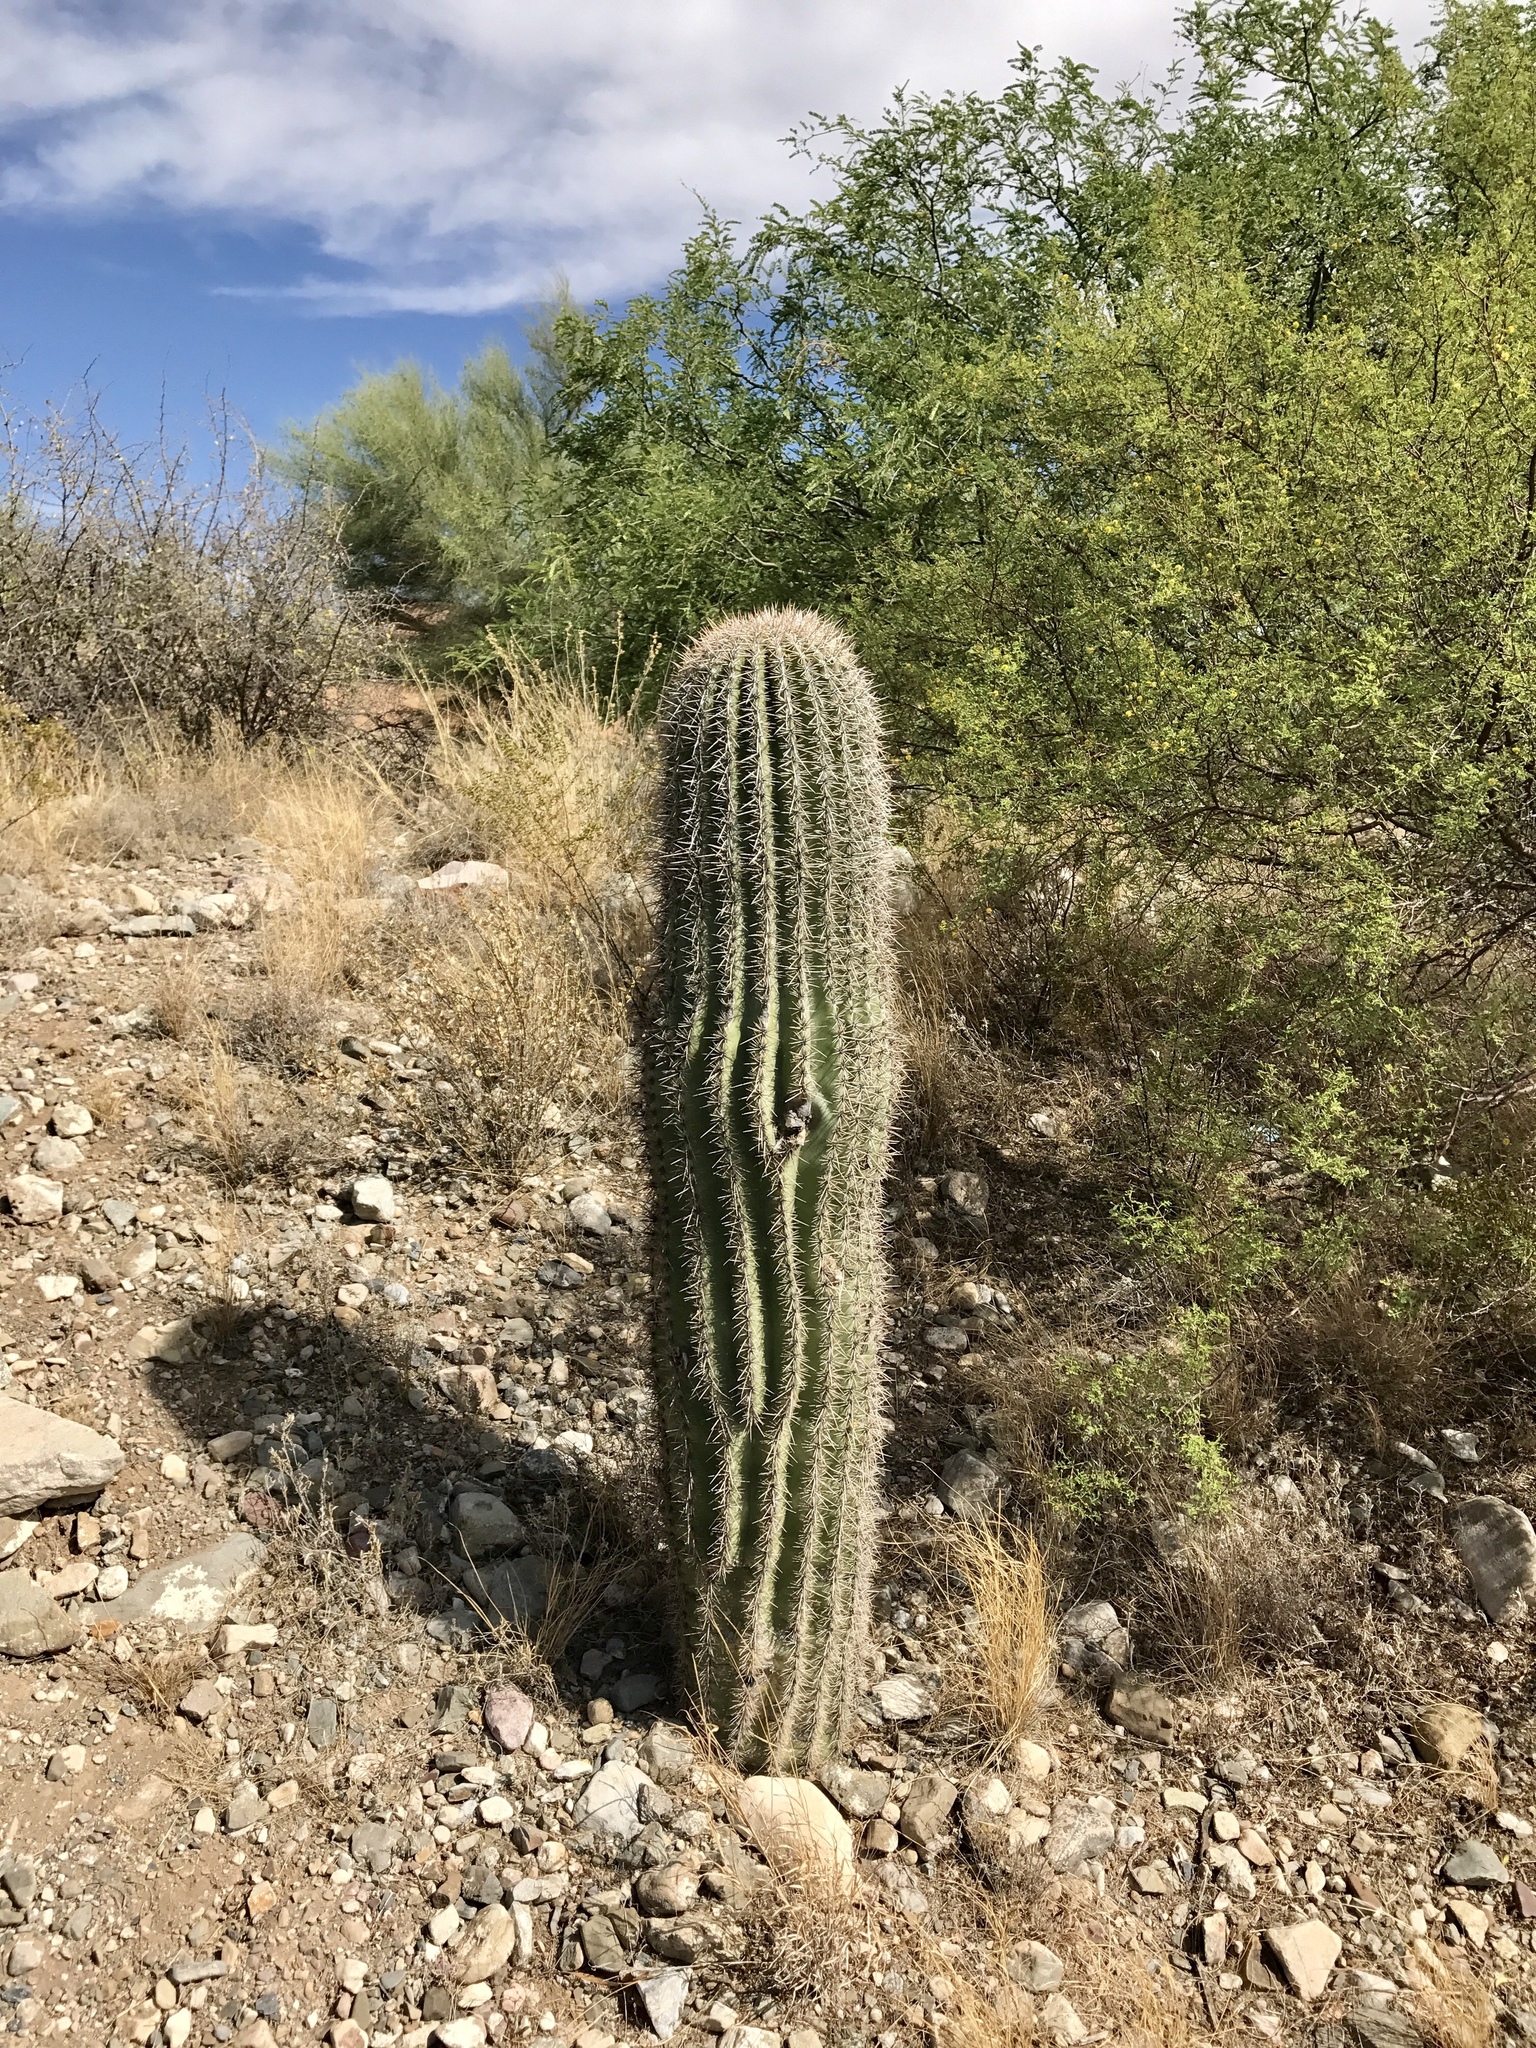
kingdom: Plantae
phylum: Tracheophyta
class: Magnoliopsida
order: Caryophyllales
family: Cactaceae
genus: Carnegiea
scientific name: Carnegiea gigantea
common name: Saguaro
